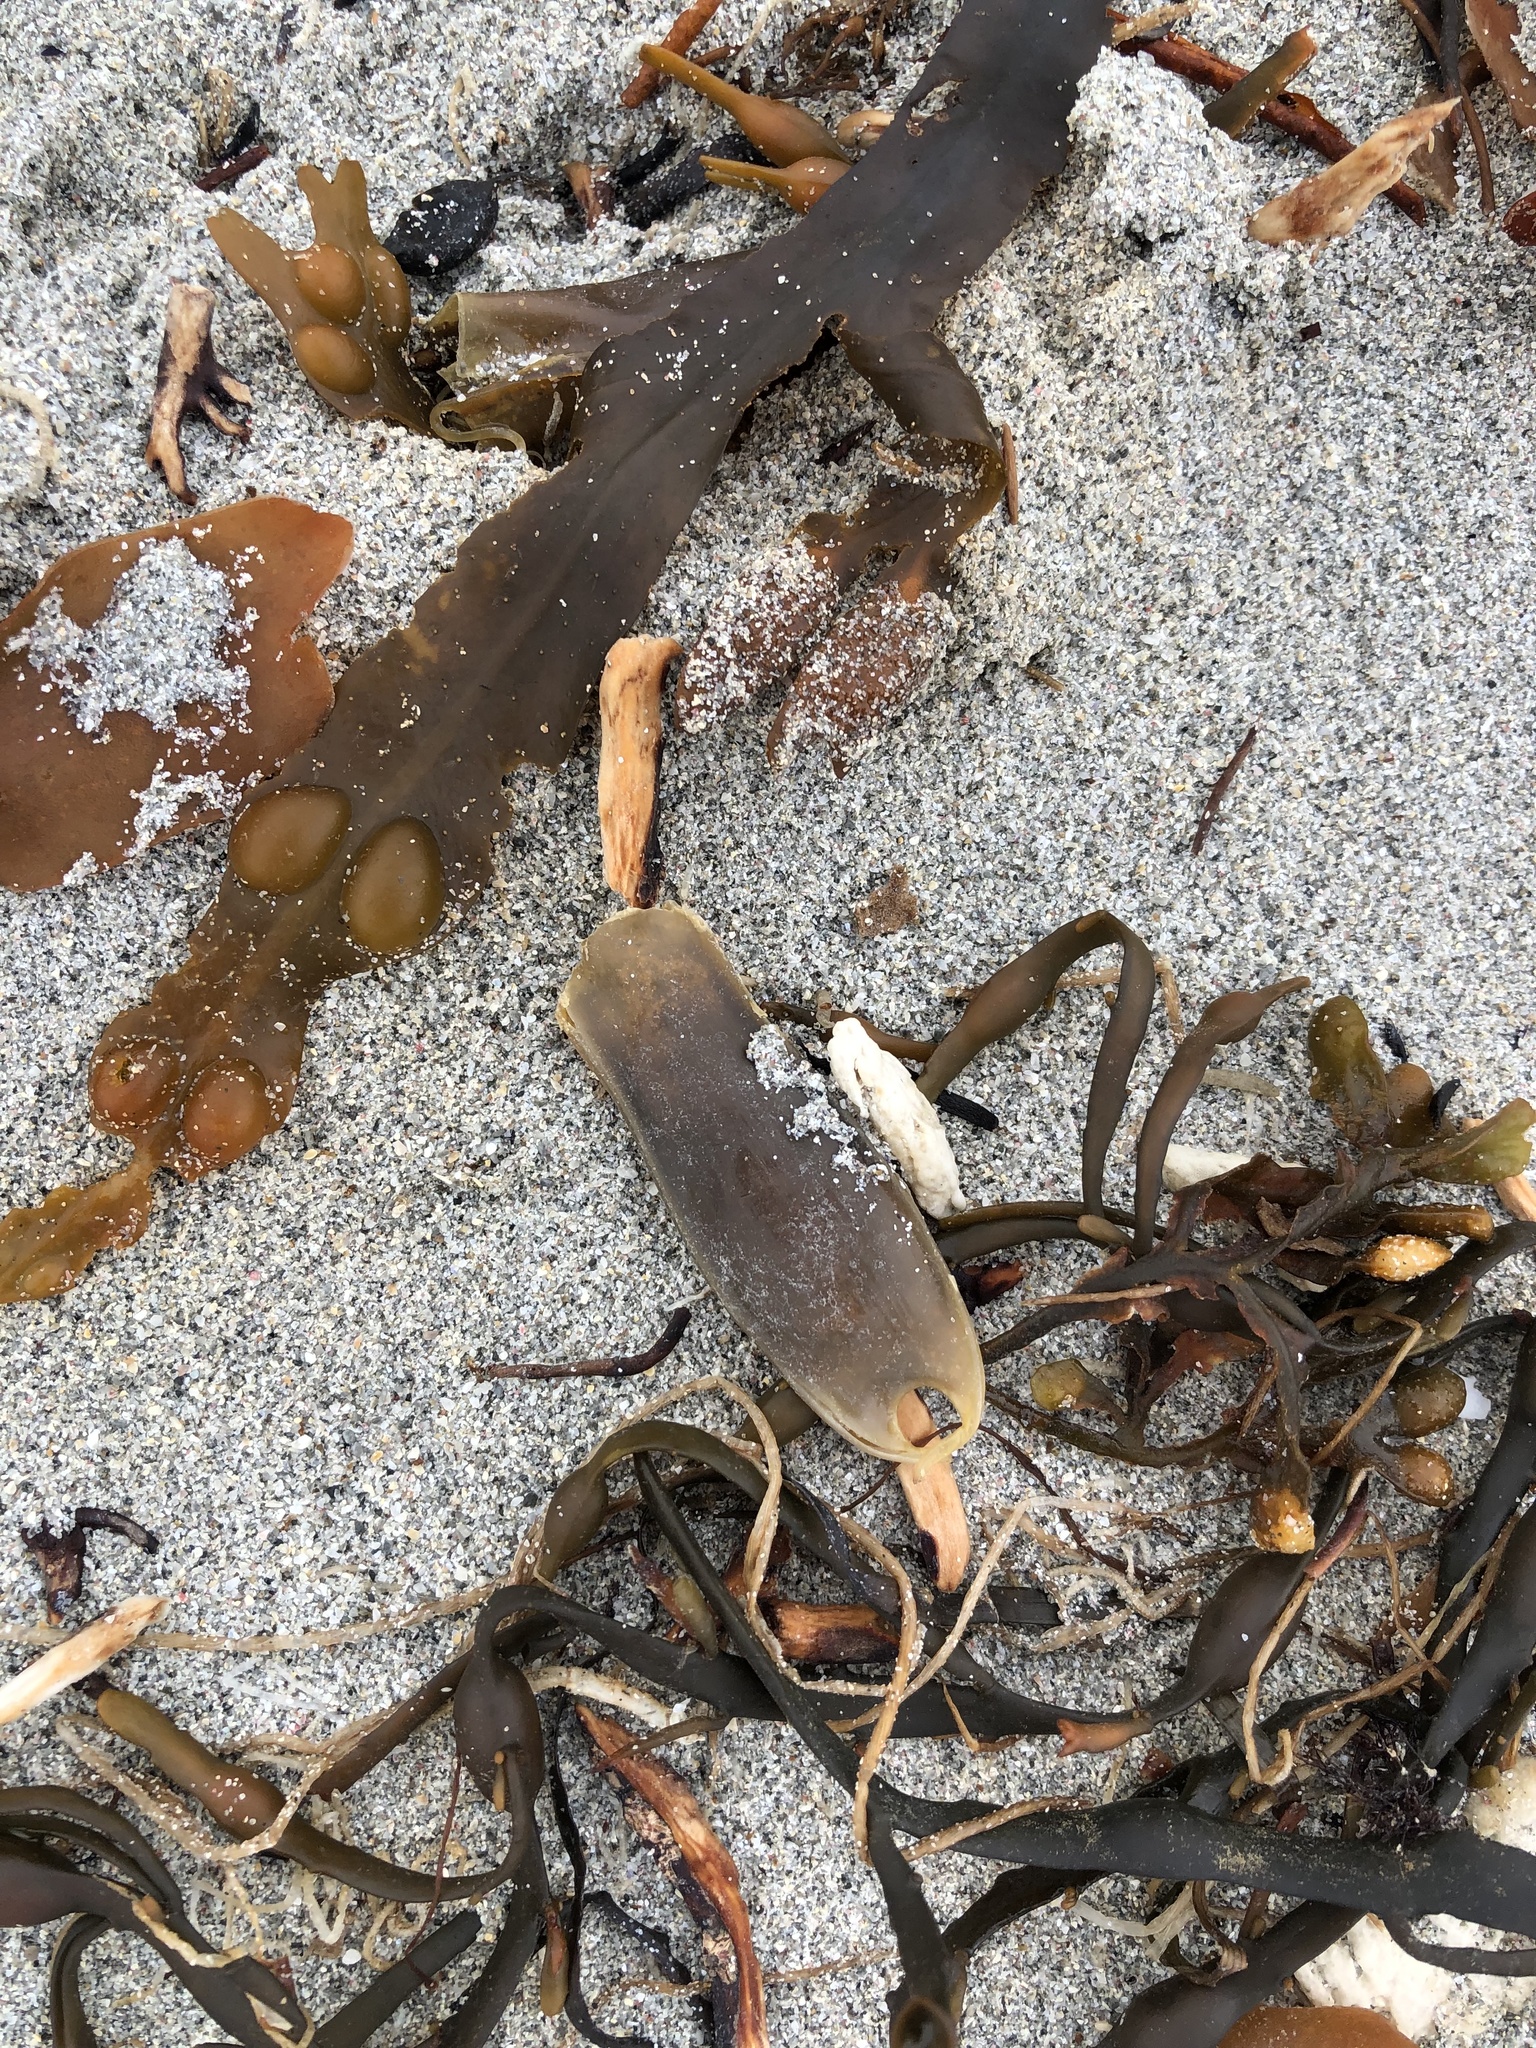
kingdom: Animalia
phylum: Chordata
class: Elasmobranchii
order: Carcharhiniformes
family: Scyliorhinidae
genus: Scyliorhinus
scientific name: Scyliorhinus canicula
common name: Lesser spotted dogfish
